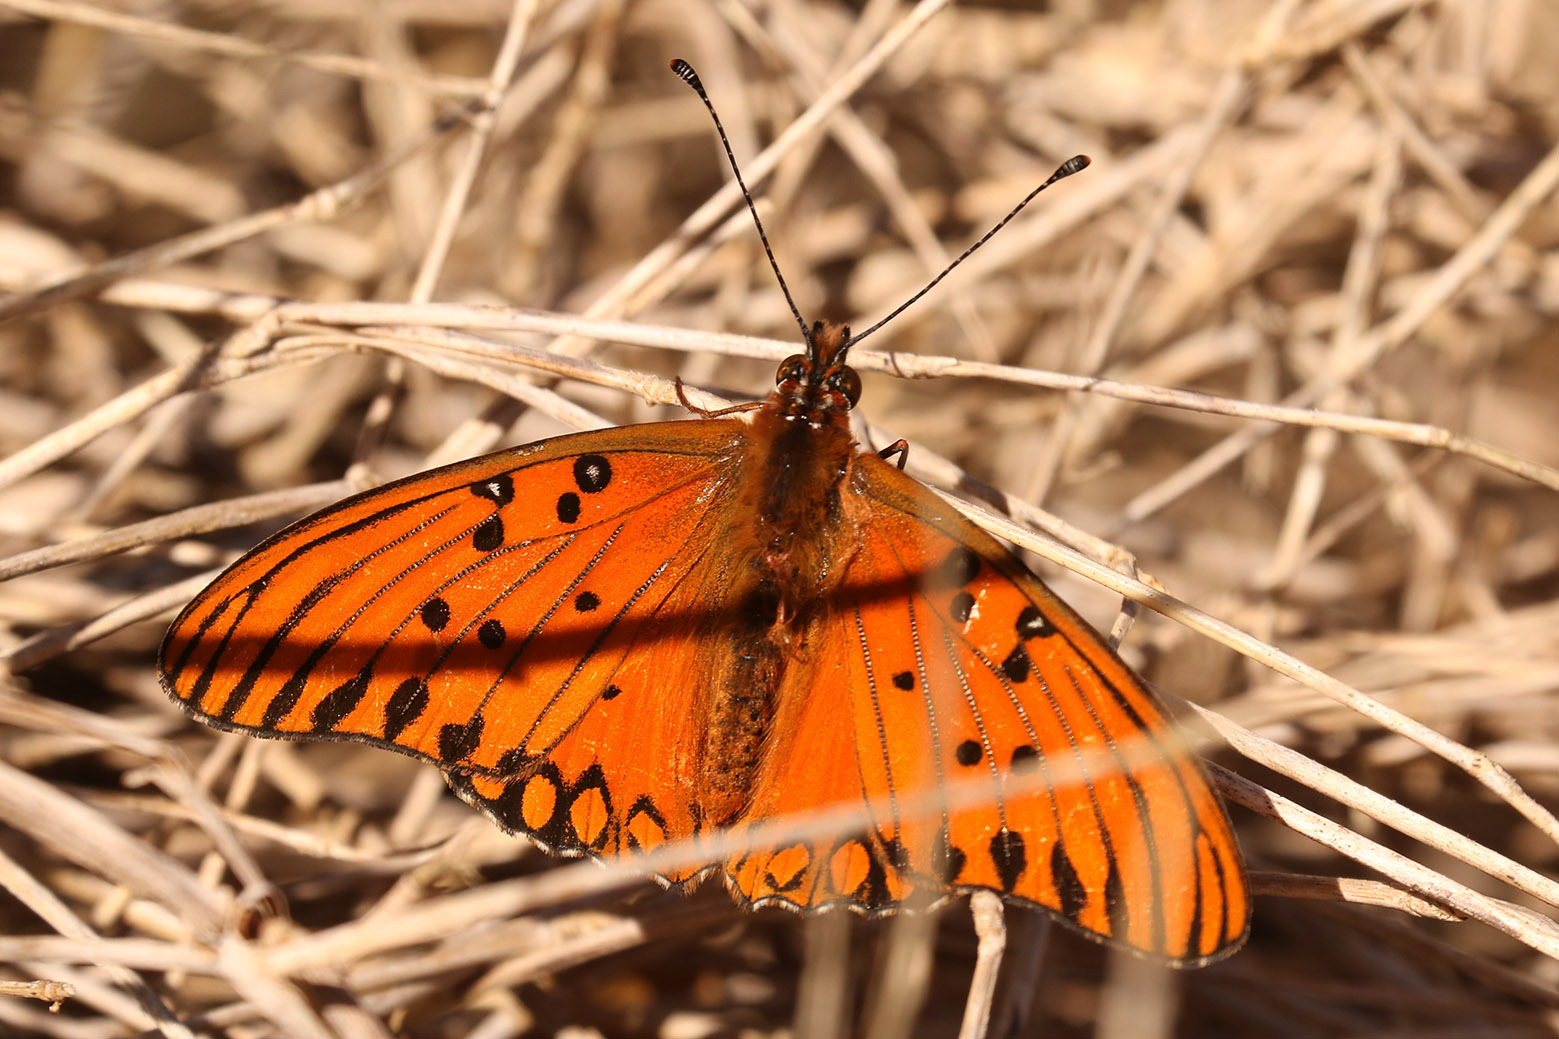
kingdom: Animalia
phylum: Arthropoda
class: Insecta
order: Lepidoptera
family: Nymphalidae
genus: Dione
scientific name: Dione vanillae
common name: Gulf fritillary
